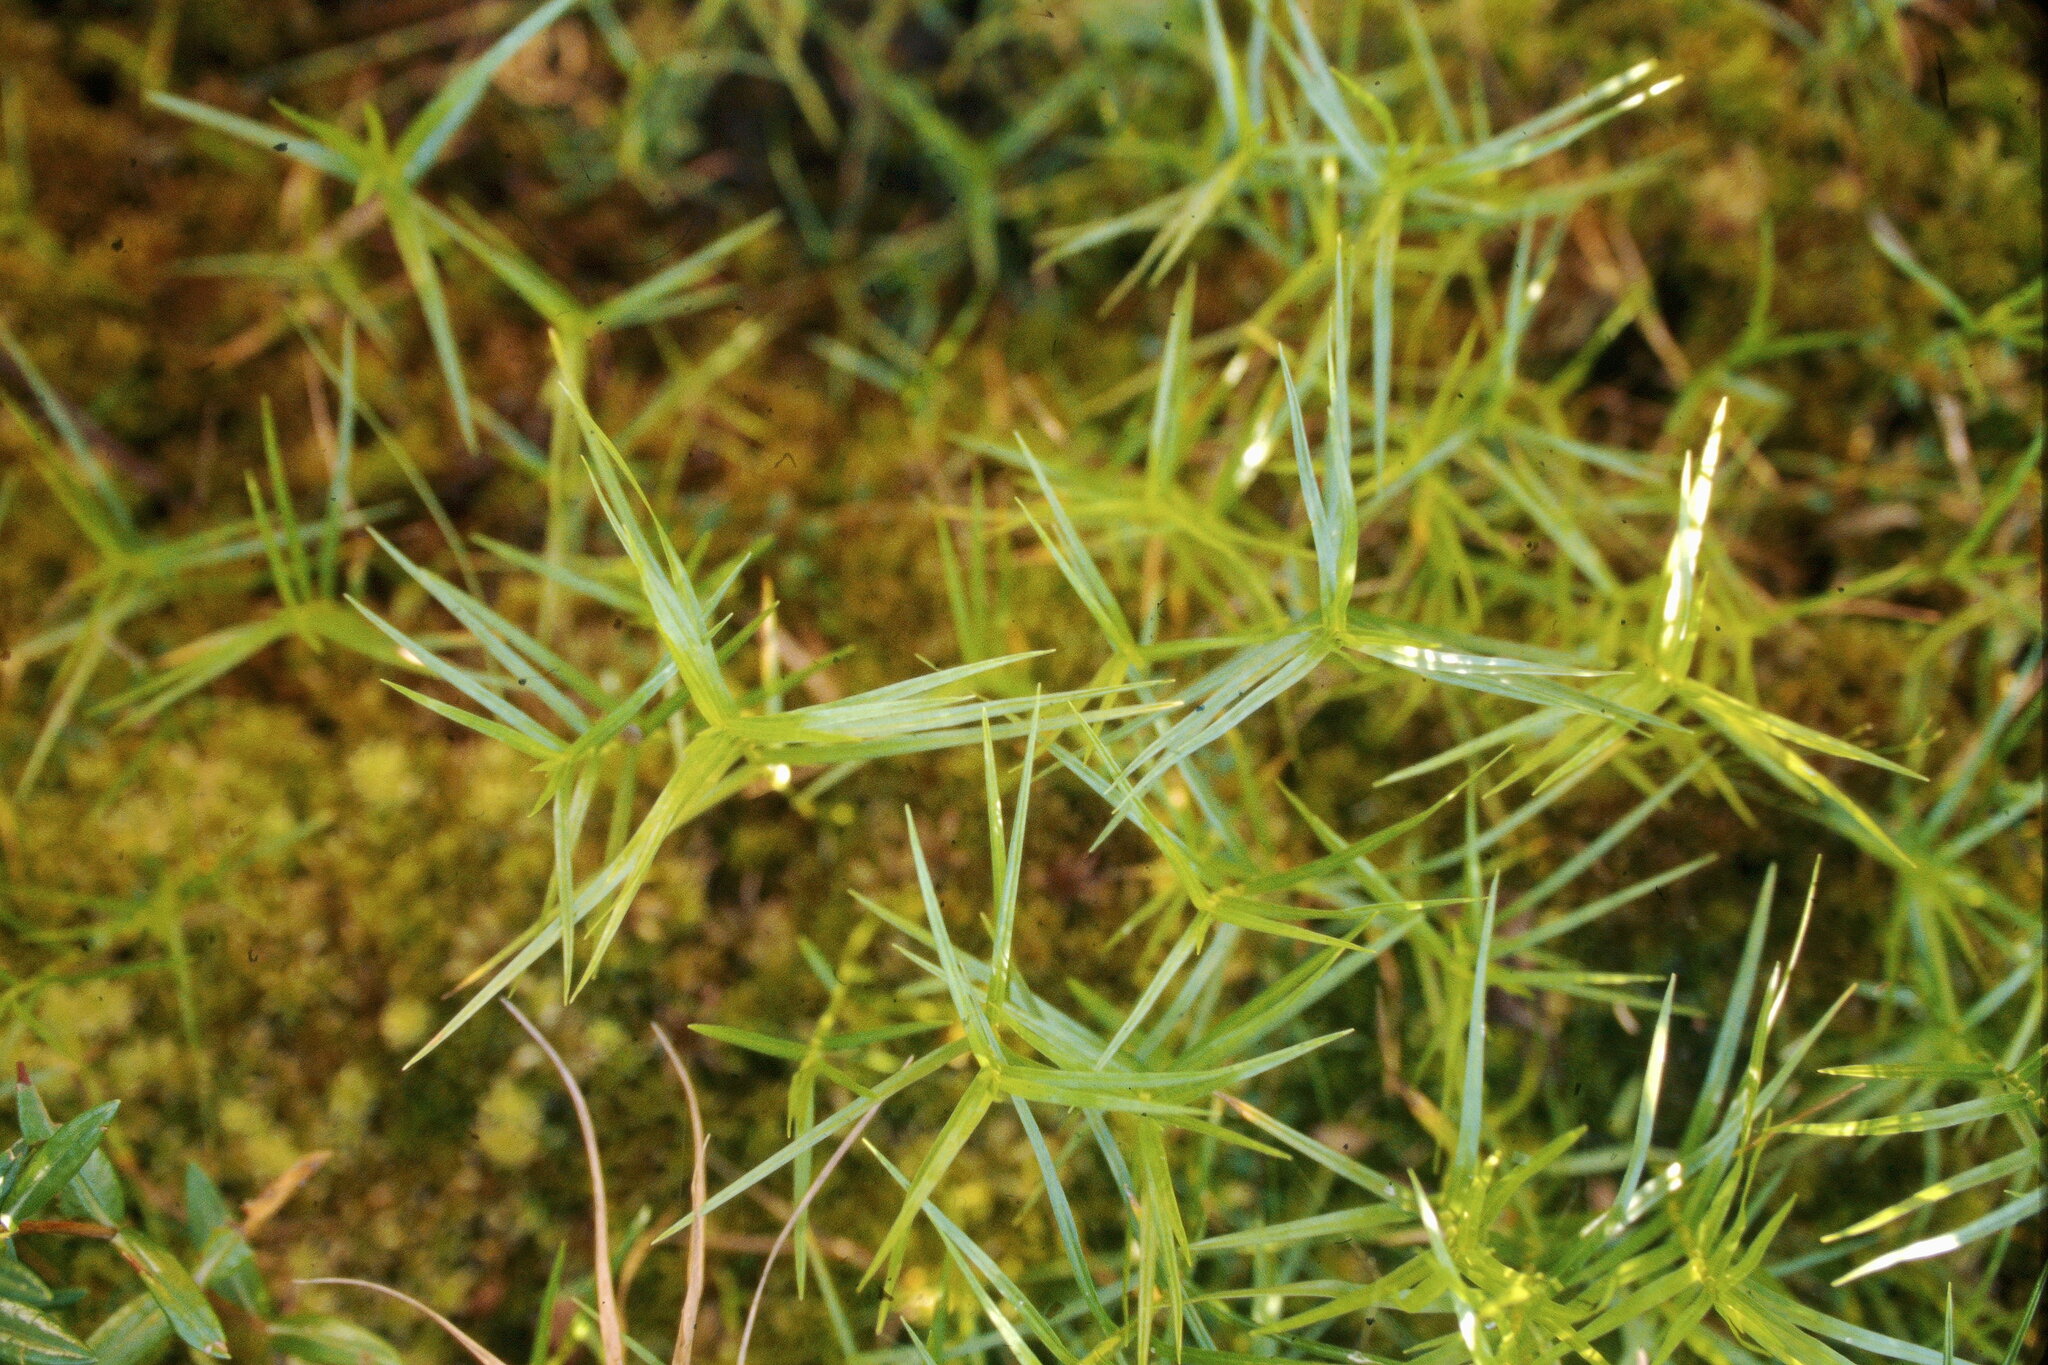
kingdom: Plantae
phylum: Tracheophyta
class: Liliopsida
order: Poales
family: Cyperaceae
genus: Dulichium
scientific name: Dulichium arundinaceum
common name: Three-way sedge
